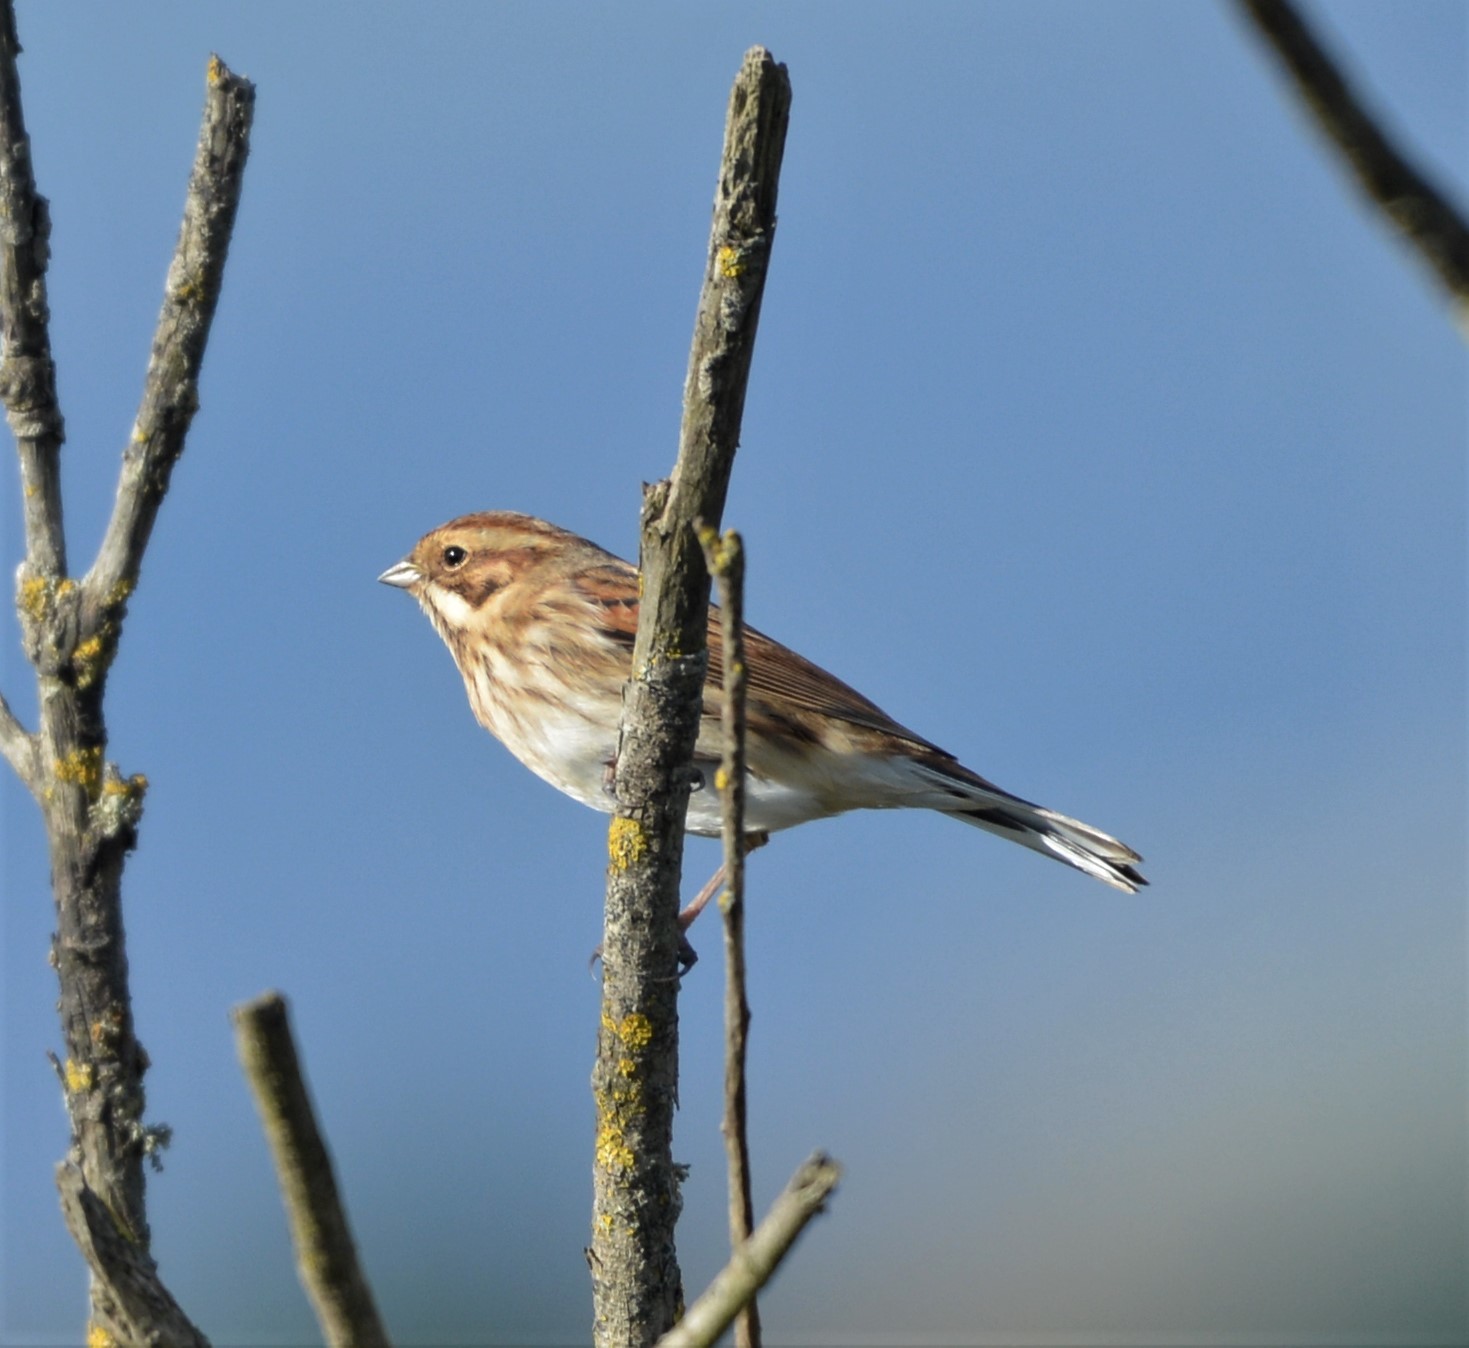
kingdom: Animalia
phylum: Chordata
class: Aves
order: Passeriformes
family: Emberizidae
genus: Emberiza
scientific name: Emberiza schoeniclus
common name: Reed bunting
